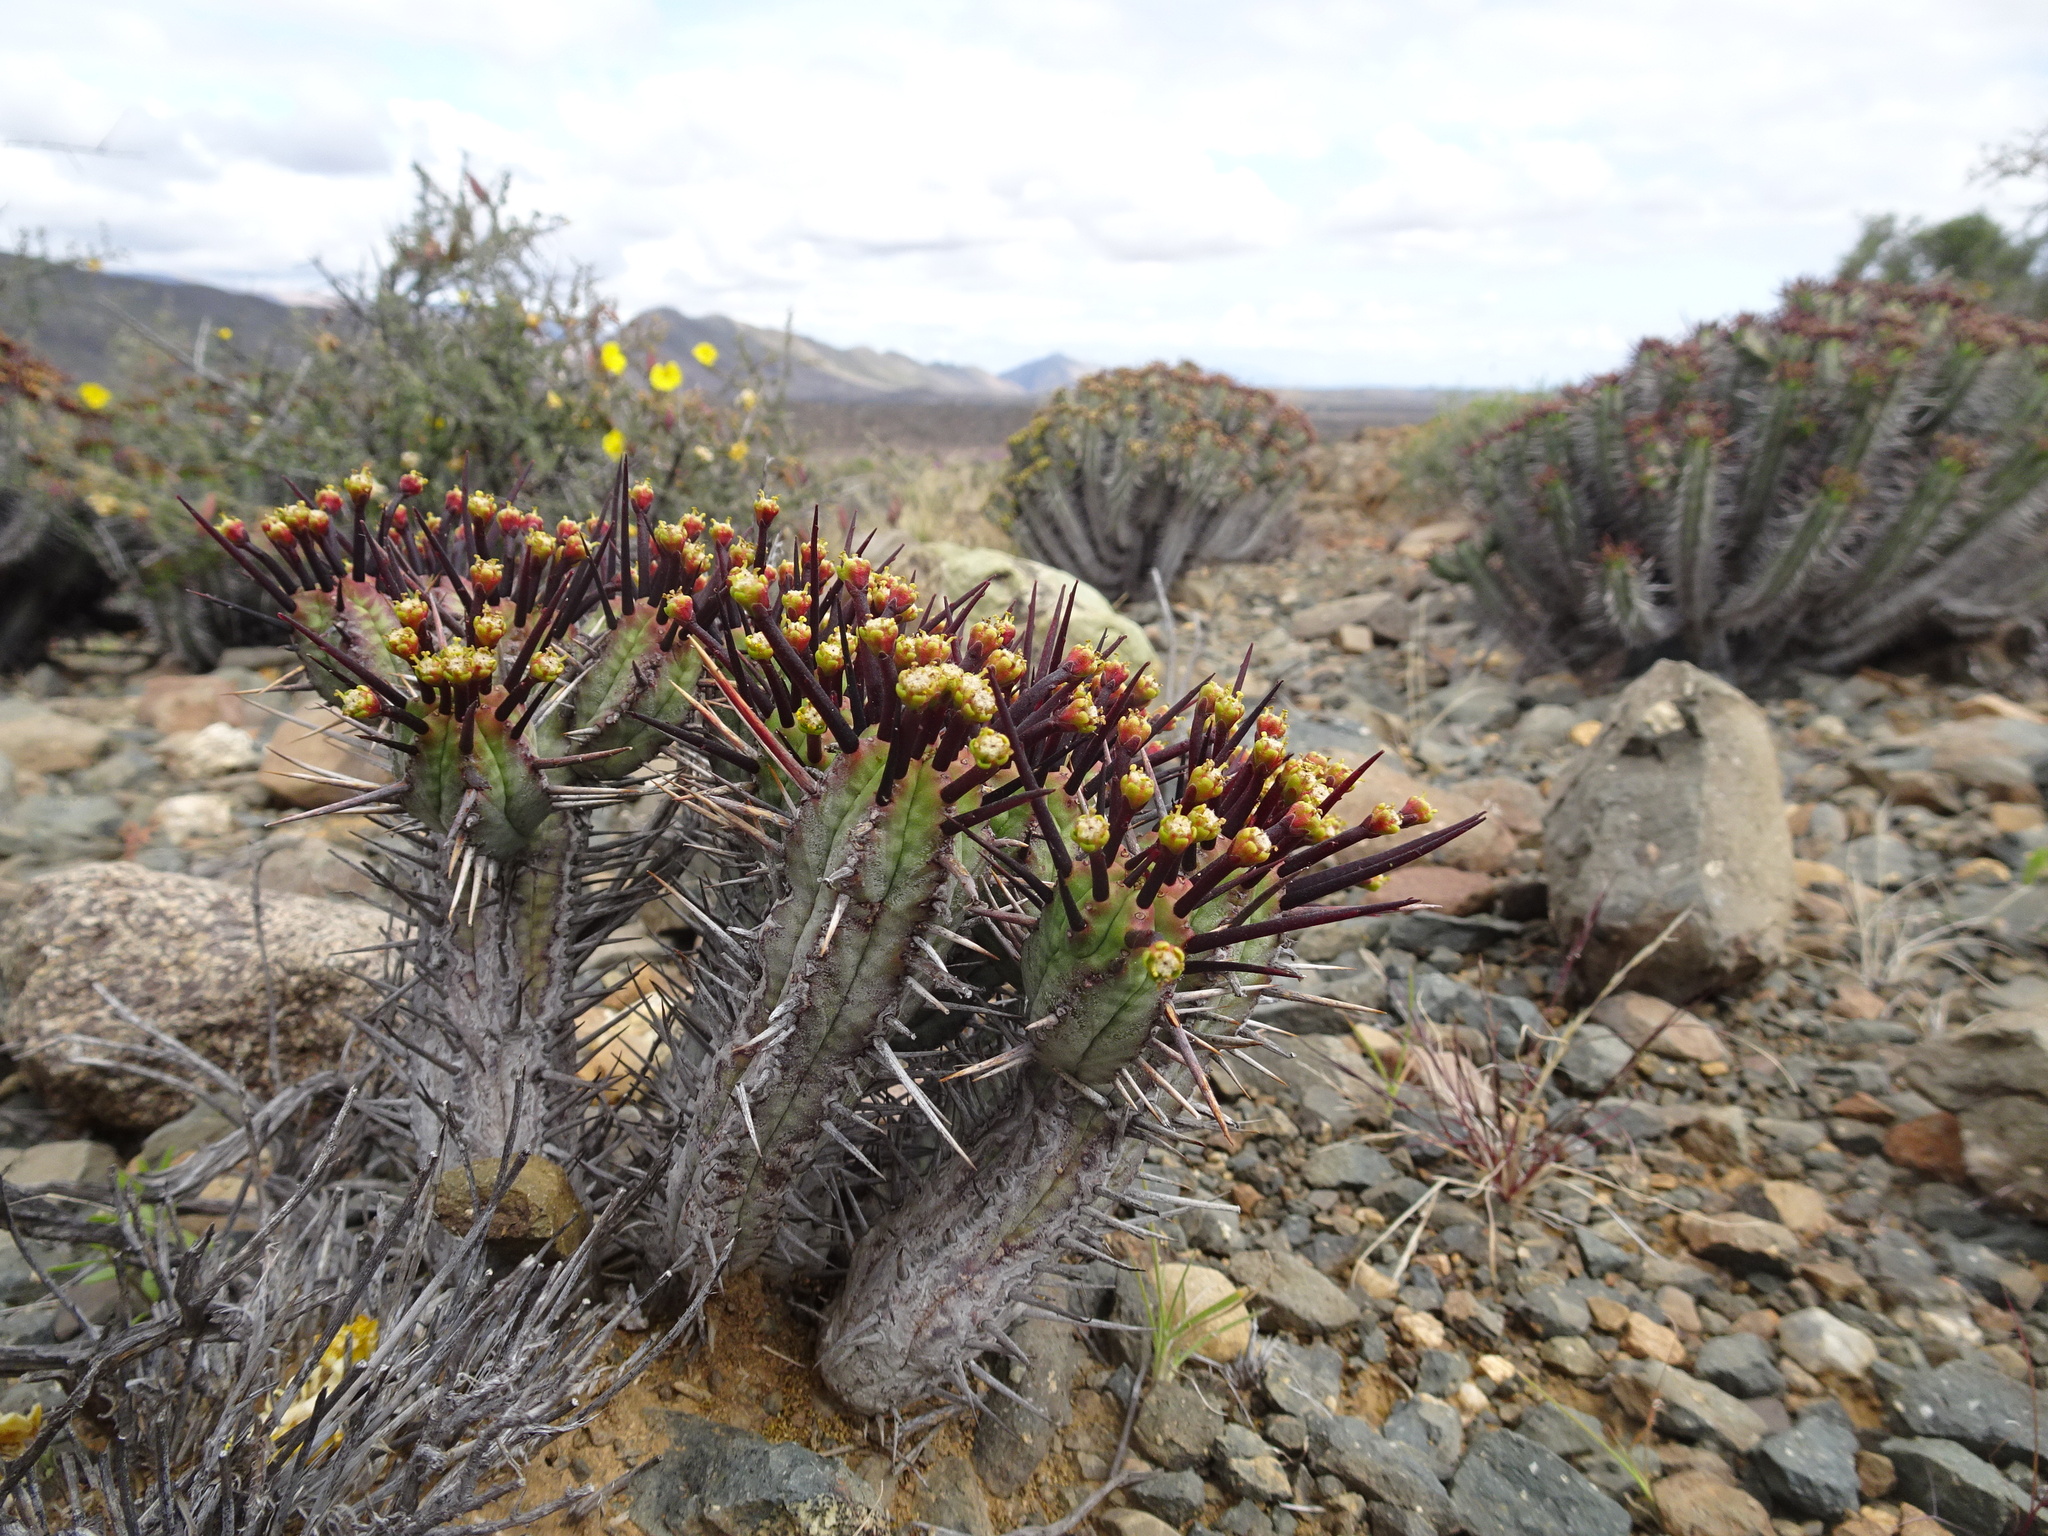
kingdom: Plantae
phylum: Tracheophyta
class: Magnoliopsida
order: Malpighiales
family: Euphorbiaceae
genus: Euphorbia
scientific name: Euphorbia heptagona
